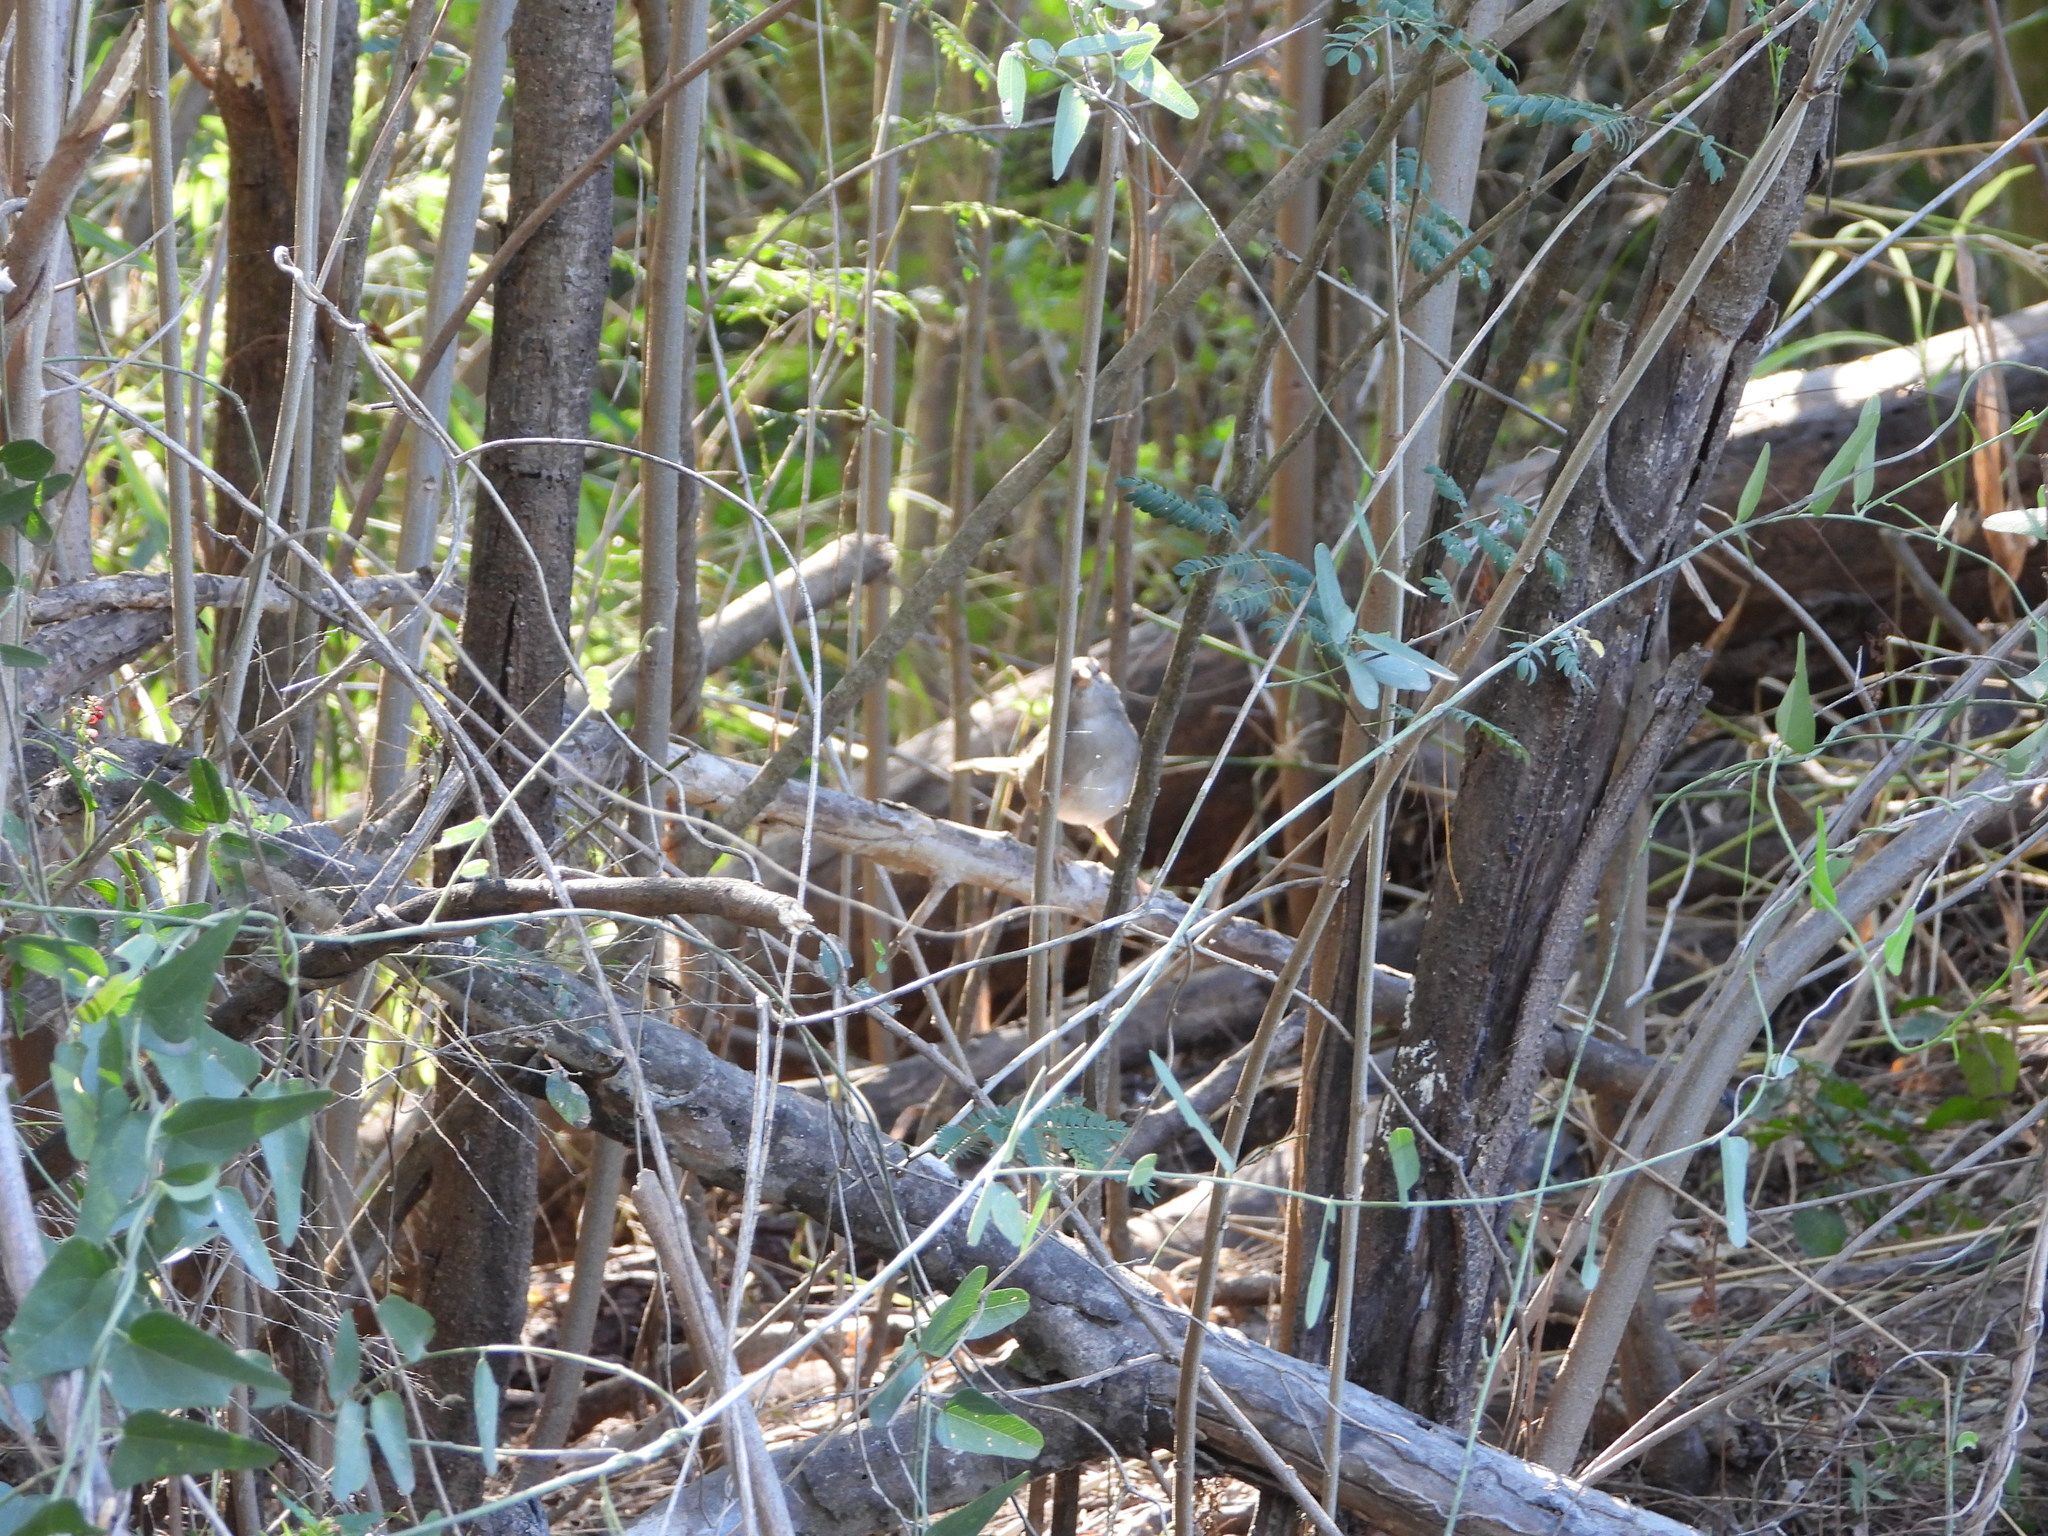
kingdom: Animalia
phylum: Chordata
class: Aves
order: Passeriformes
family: Passerellidae
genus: Arremonops
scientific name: Arremonops rufivirgatus
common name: Olive sparrow
